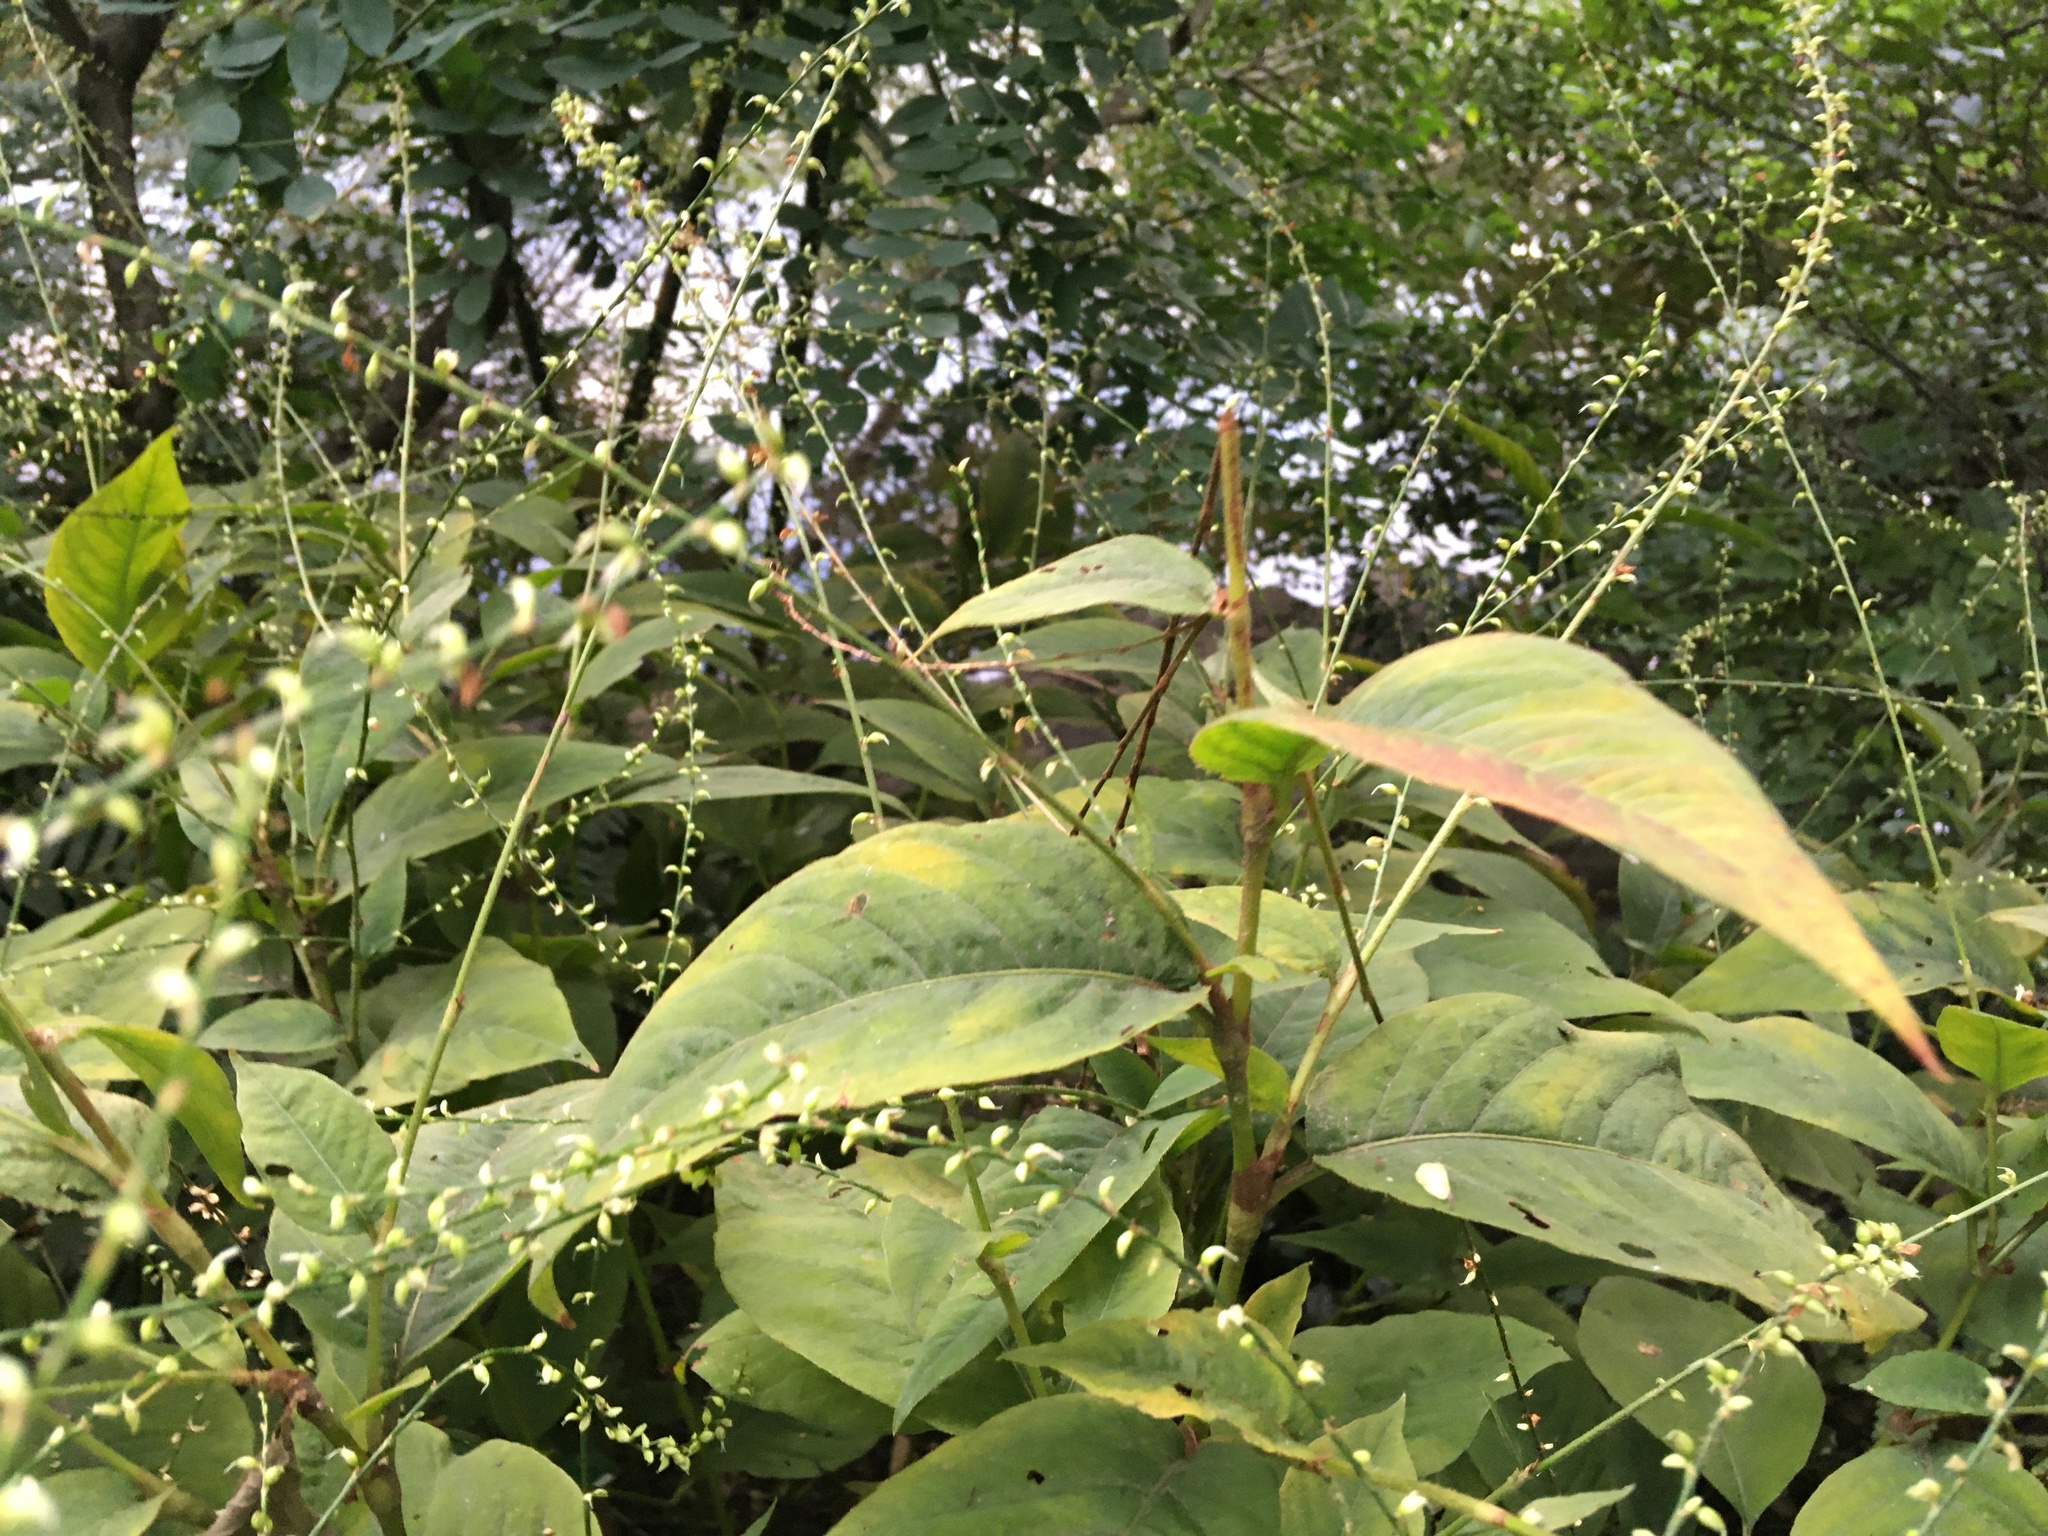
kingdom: Plantae
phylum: Tracheophyta
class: Magnoliopsida
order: Caryophyllales
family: Polygonaceae
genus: Persicaria
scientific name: Persicaria virginiana
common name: Jumpseed
